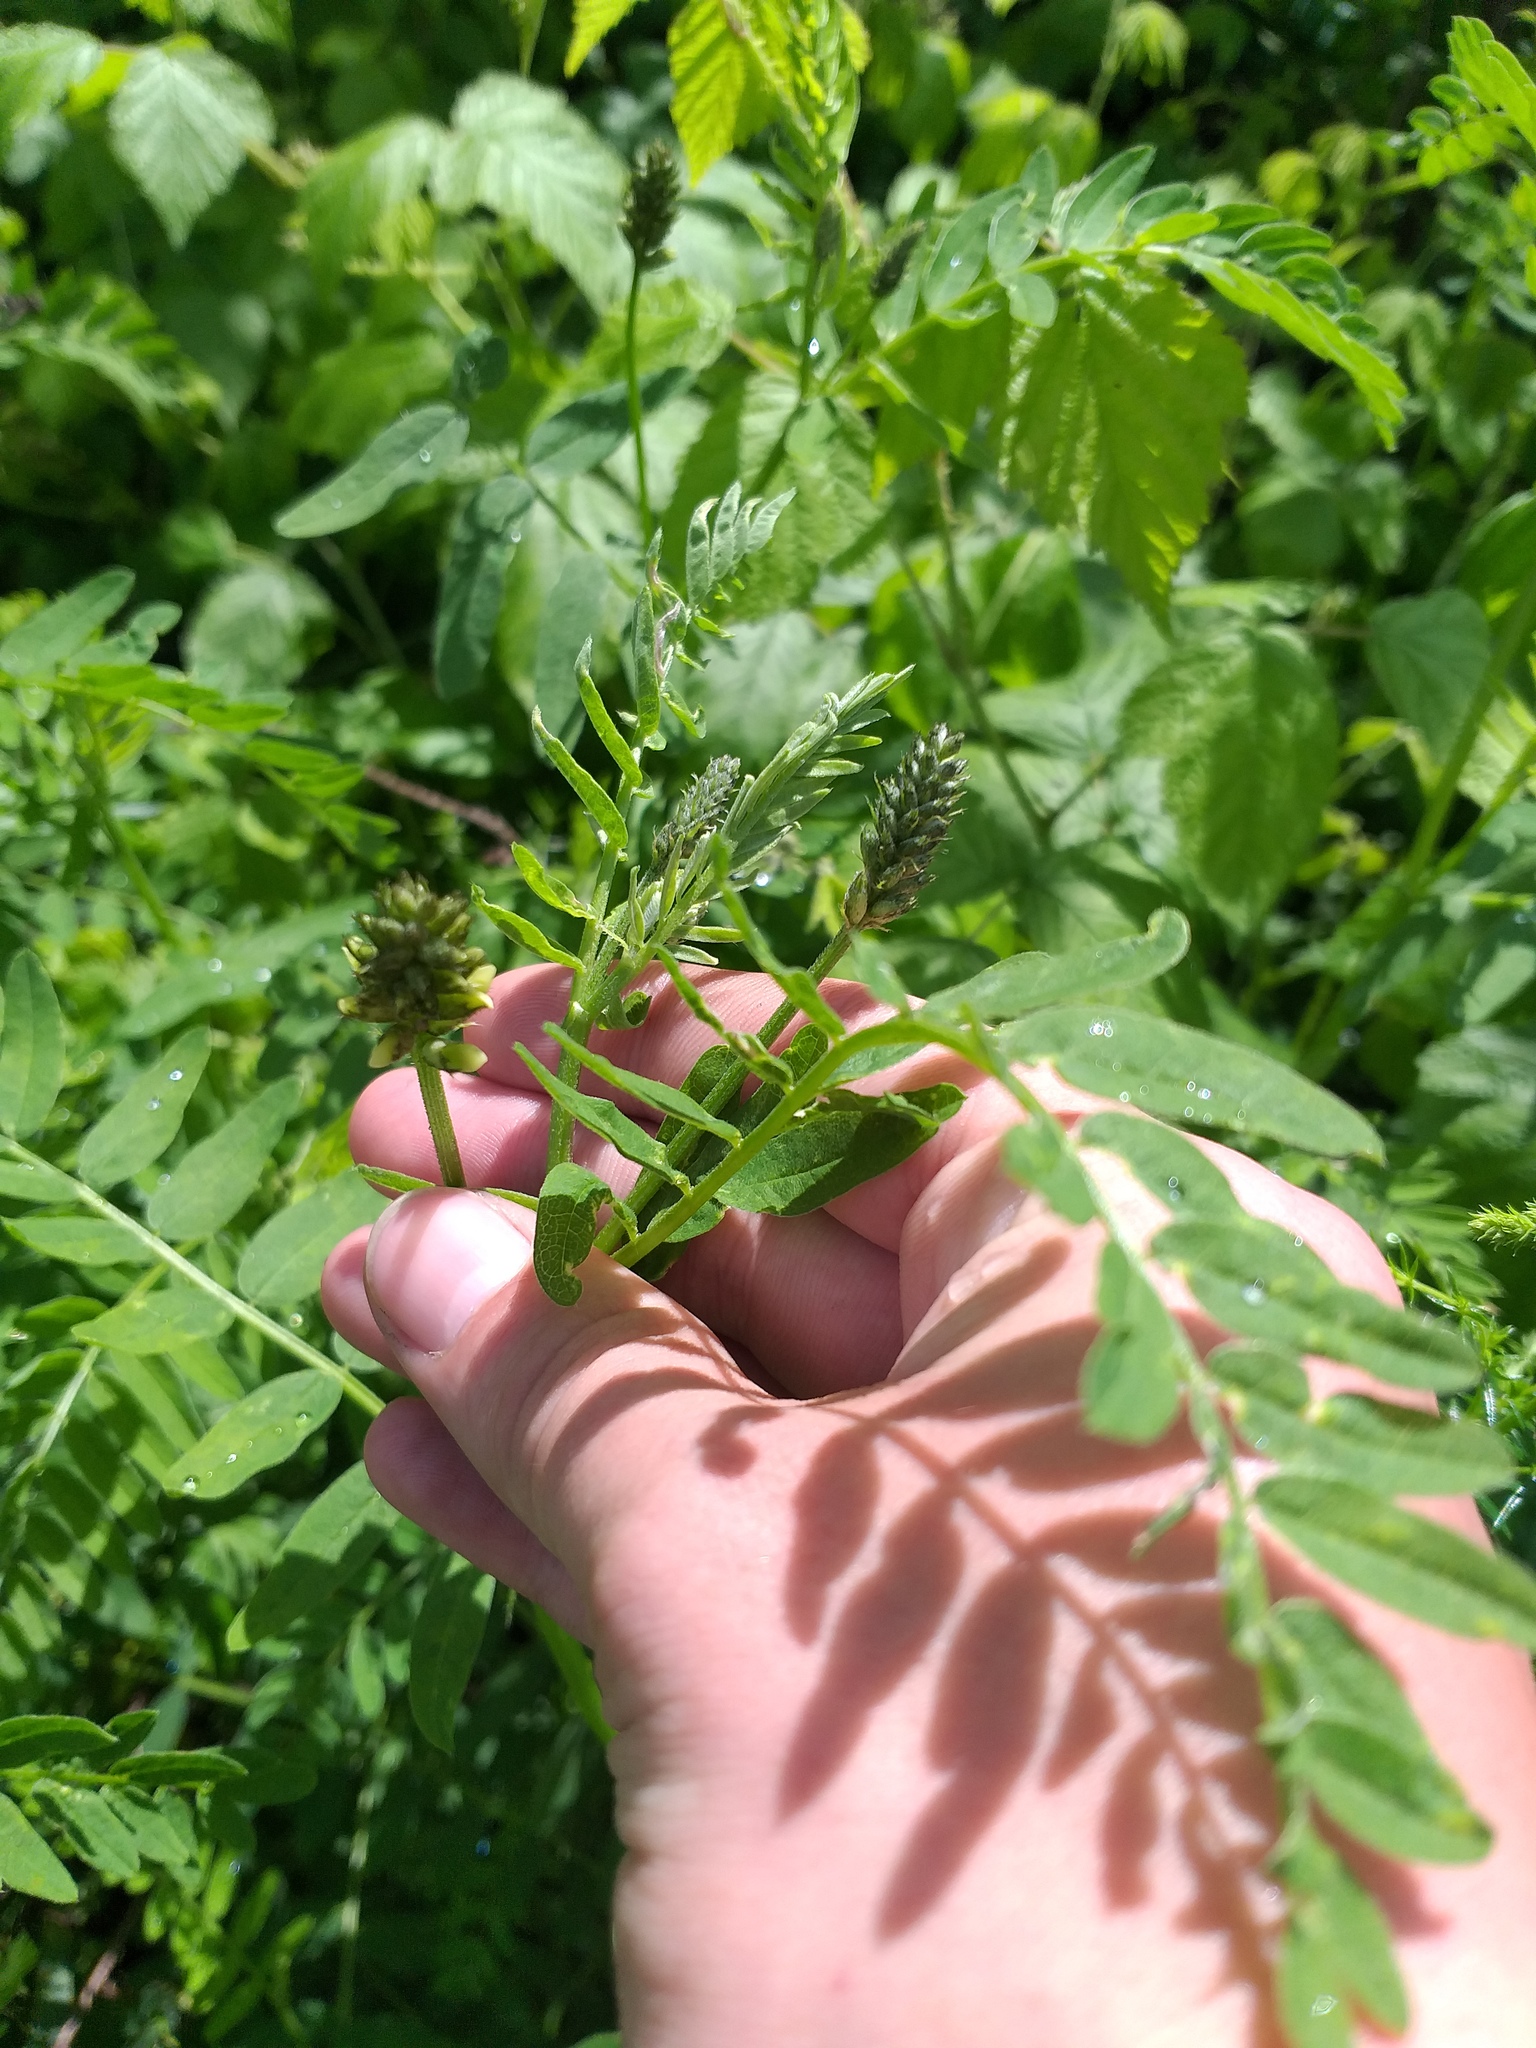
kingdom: Plantae
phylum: Tracheophyta
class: Magnoliopsida
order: Fabales
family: Fabaceae
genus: Astragalus
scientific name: Astragalus cicer
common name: Chick-pea milk-vetch
